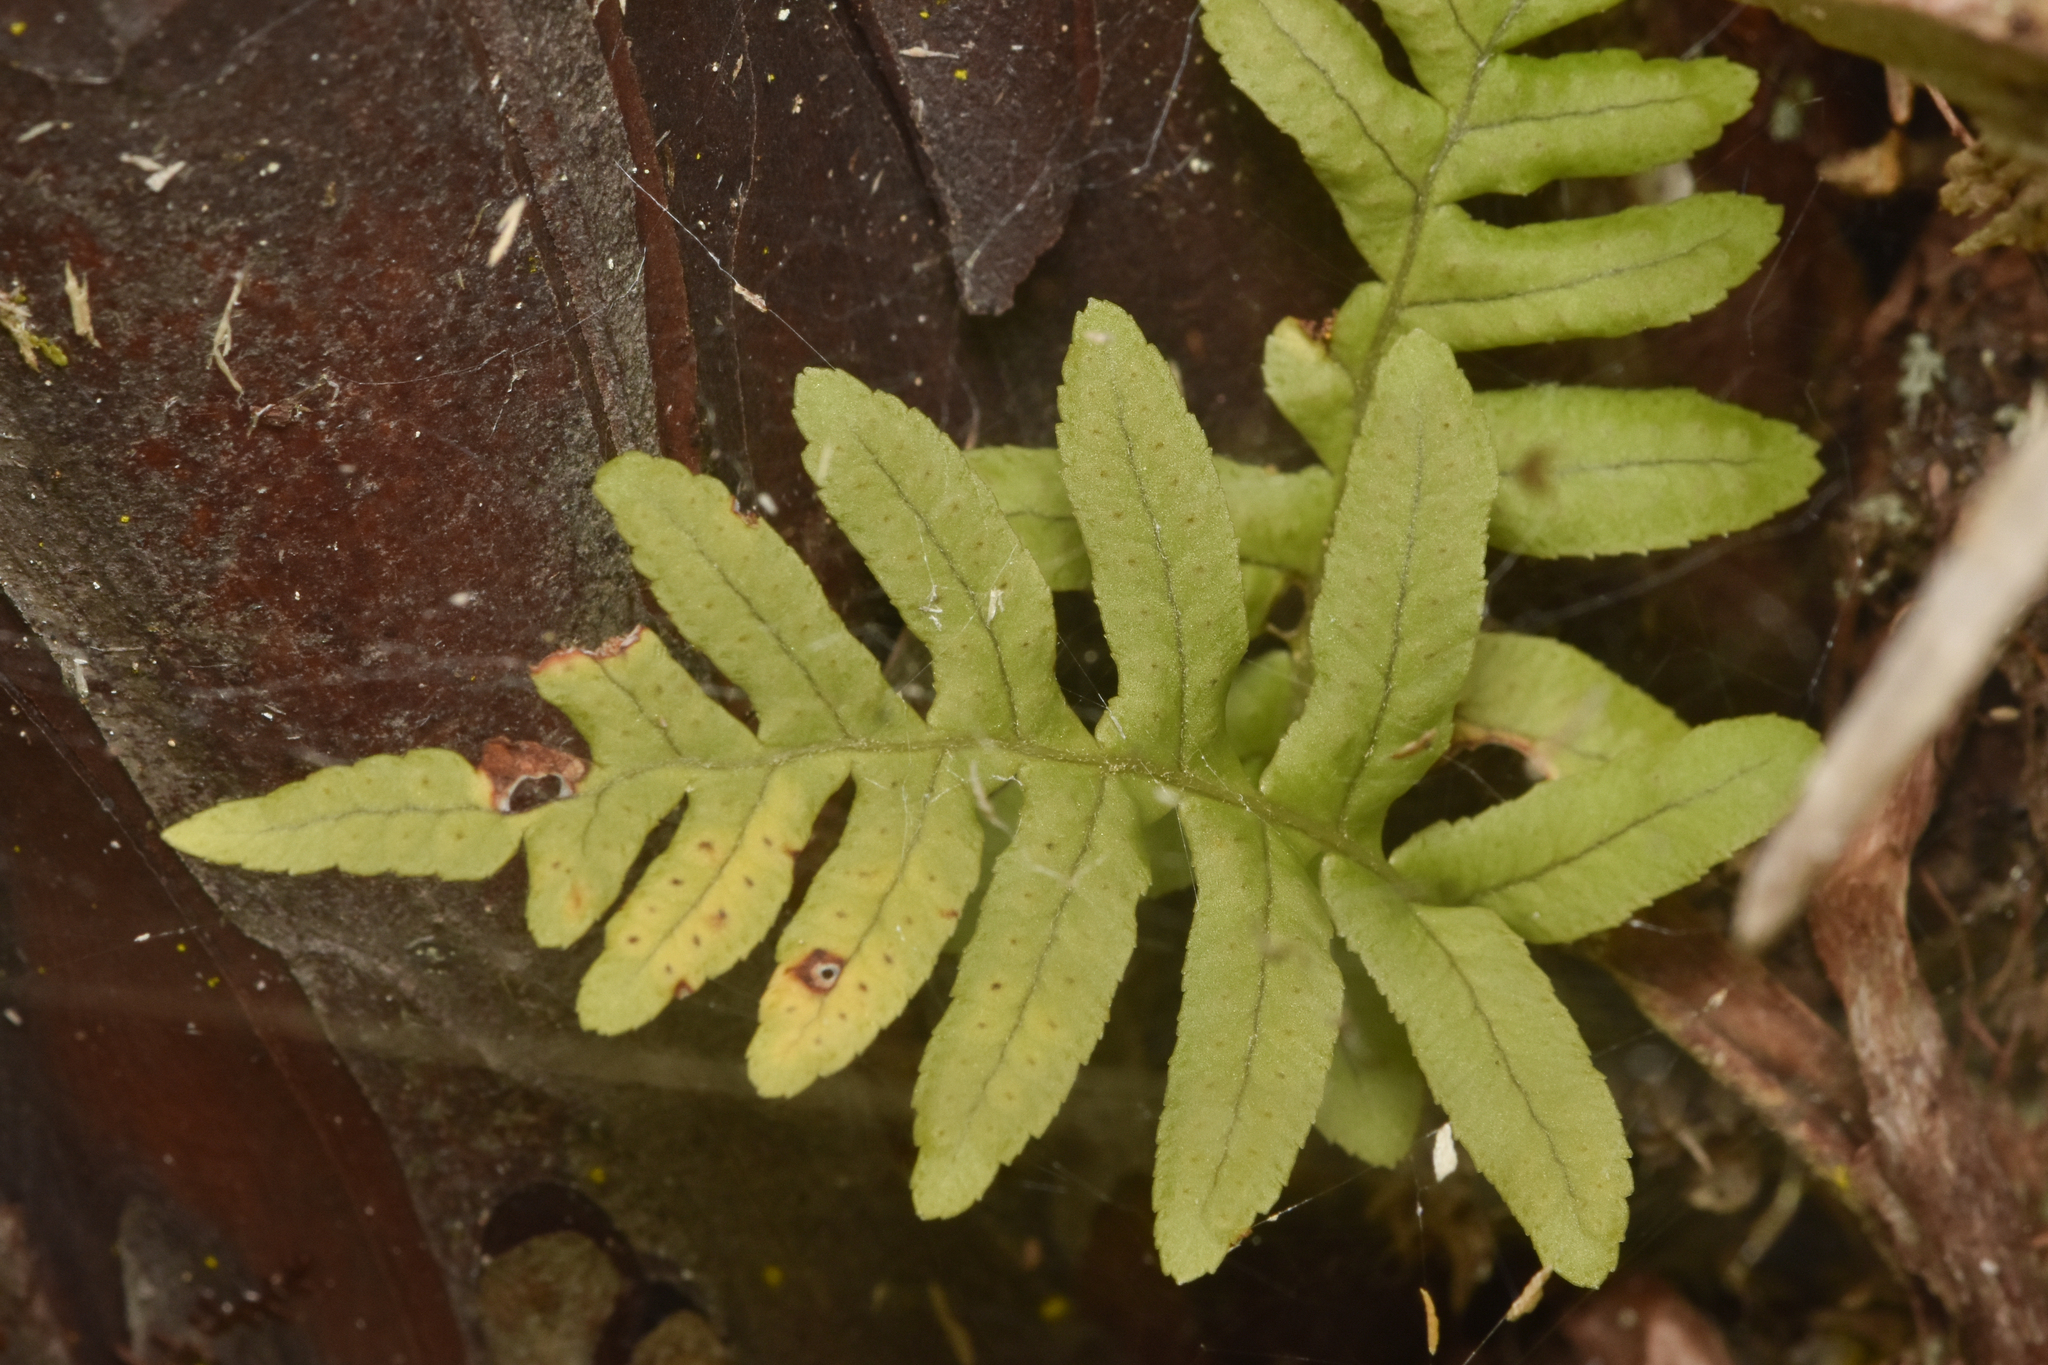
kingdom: Plantae
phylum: Tracheophyta
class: Polypodiopsida
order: Polypodiales
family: Polypodiaceae
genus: Polypodium
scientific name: Polypodium glycyrrhiza
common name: Licorice fern
